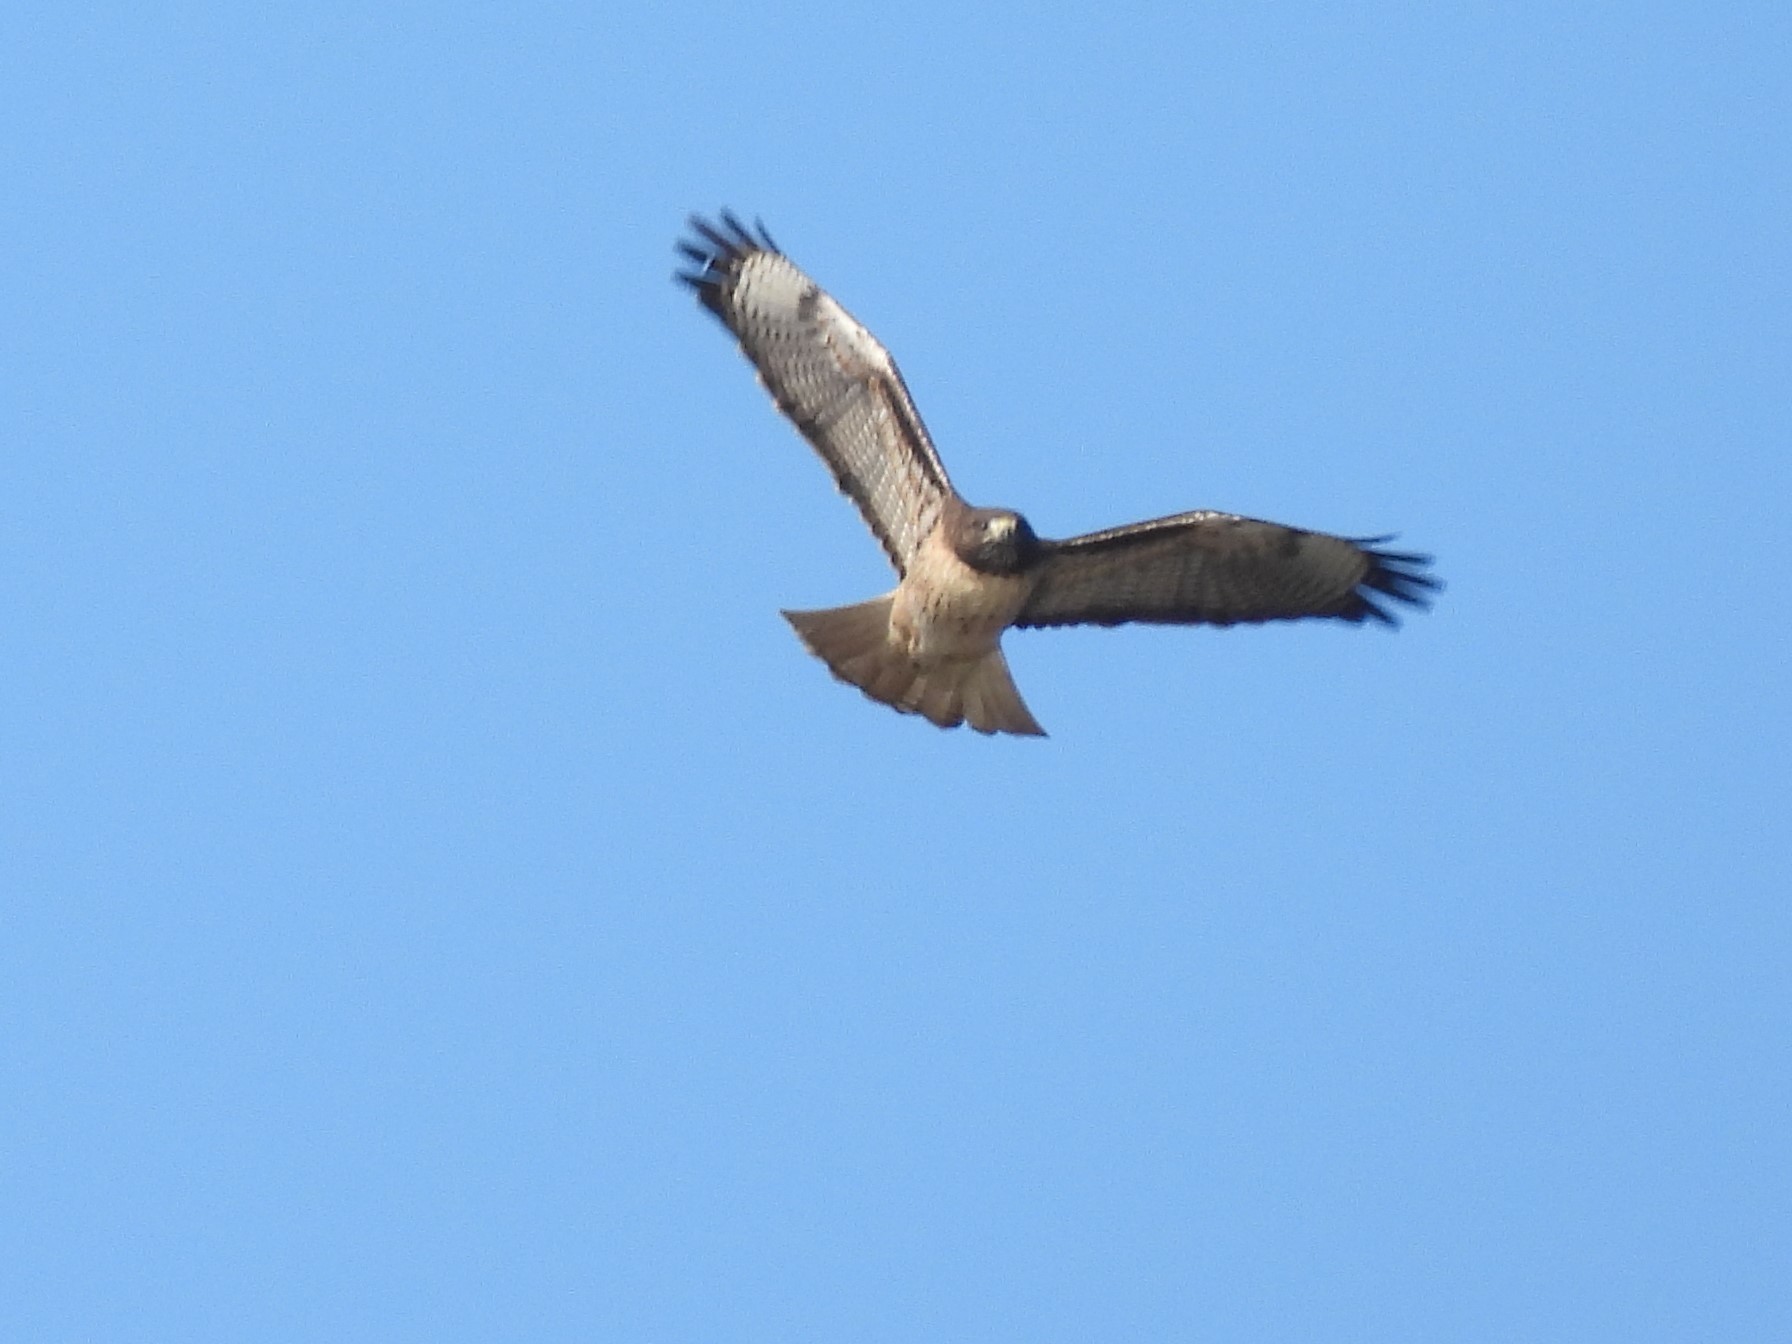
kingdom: Animalia
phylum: Chordata
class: Aves
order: Accipitriformes
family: Accipitridae
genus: Buteo
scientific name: Buteo jamaicensis
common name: Red-tailed hawk
